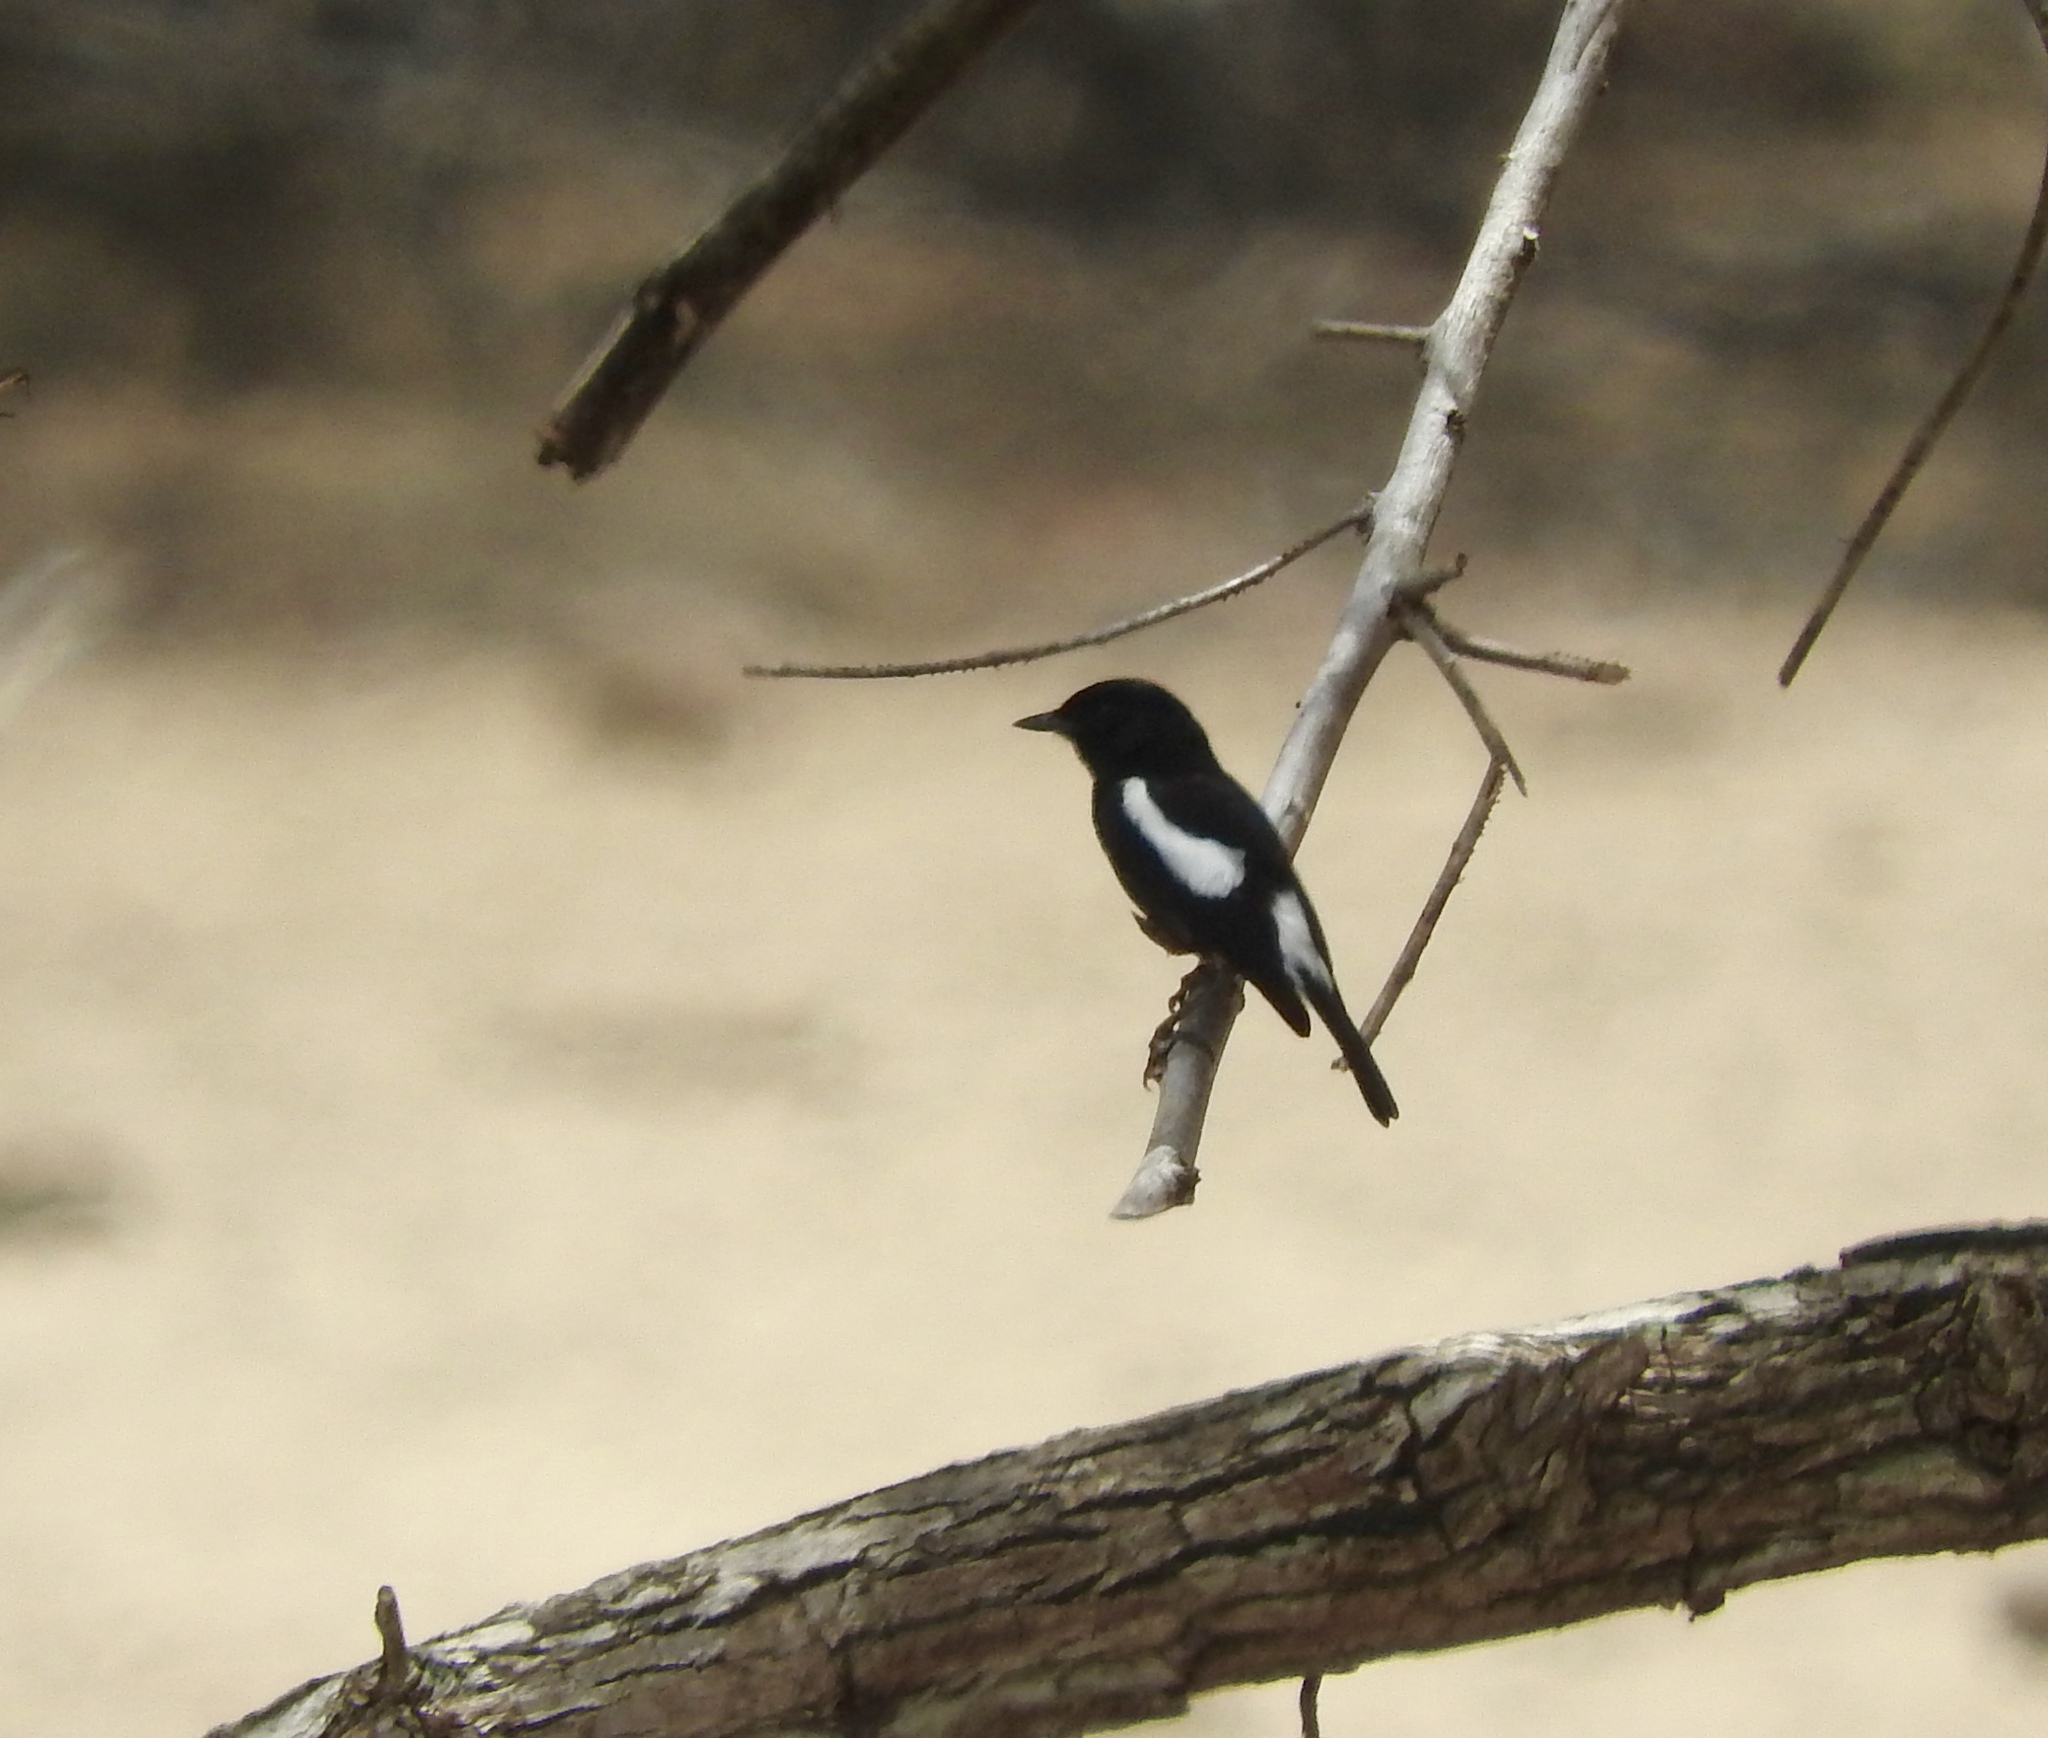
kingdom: Animalia
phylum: Chordata
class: Aves
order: Passeriformes
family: Muscicapidae
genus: Saxicola
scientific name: Saxicola caprata
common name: Pied bush chat
